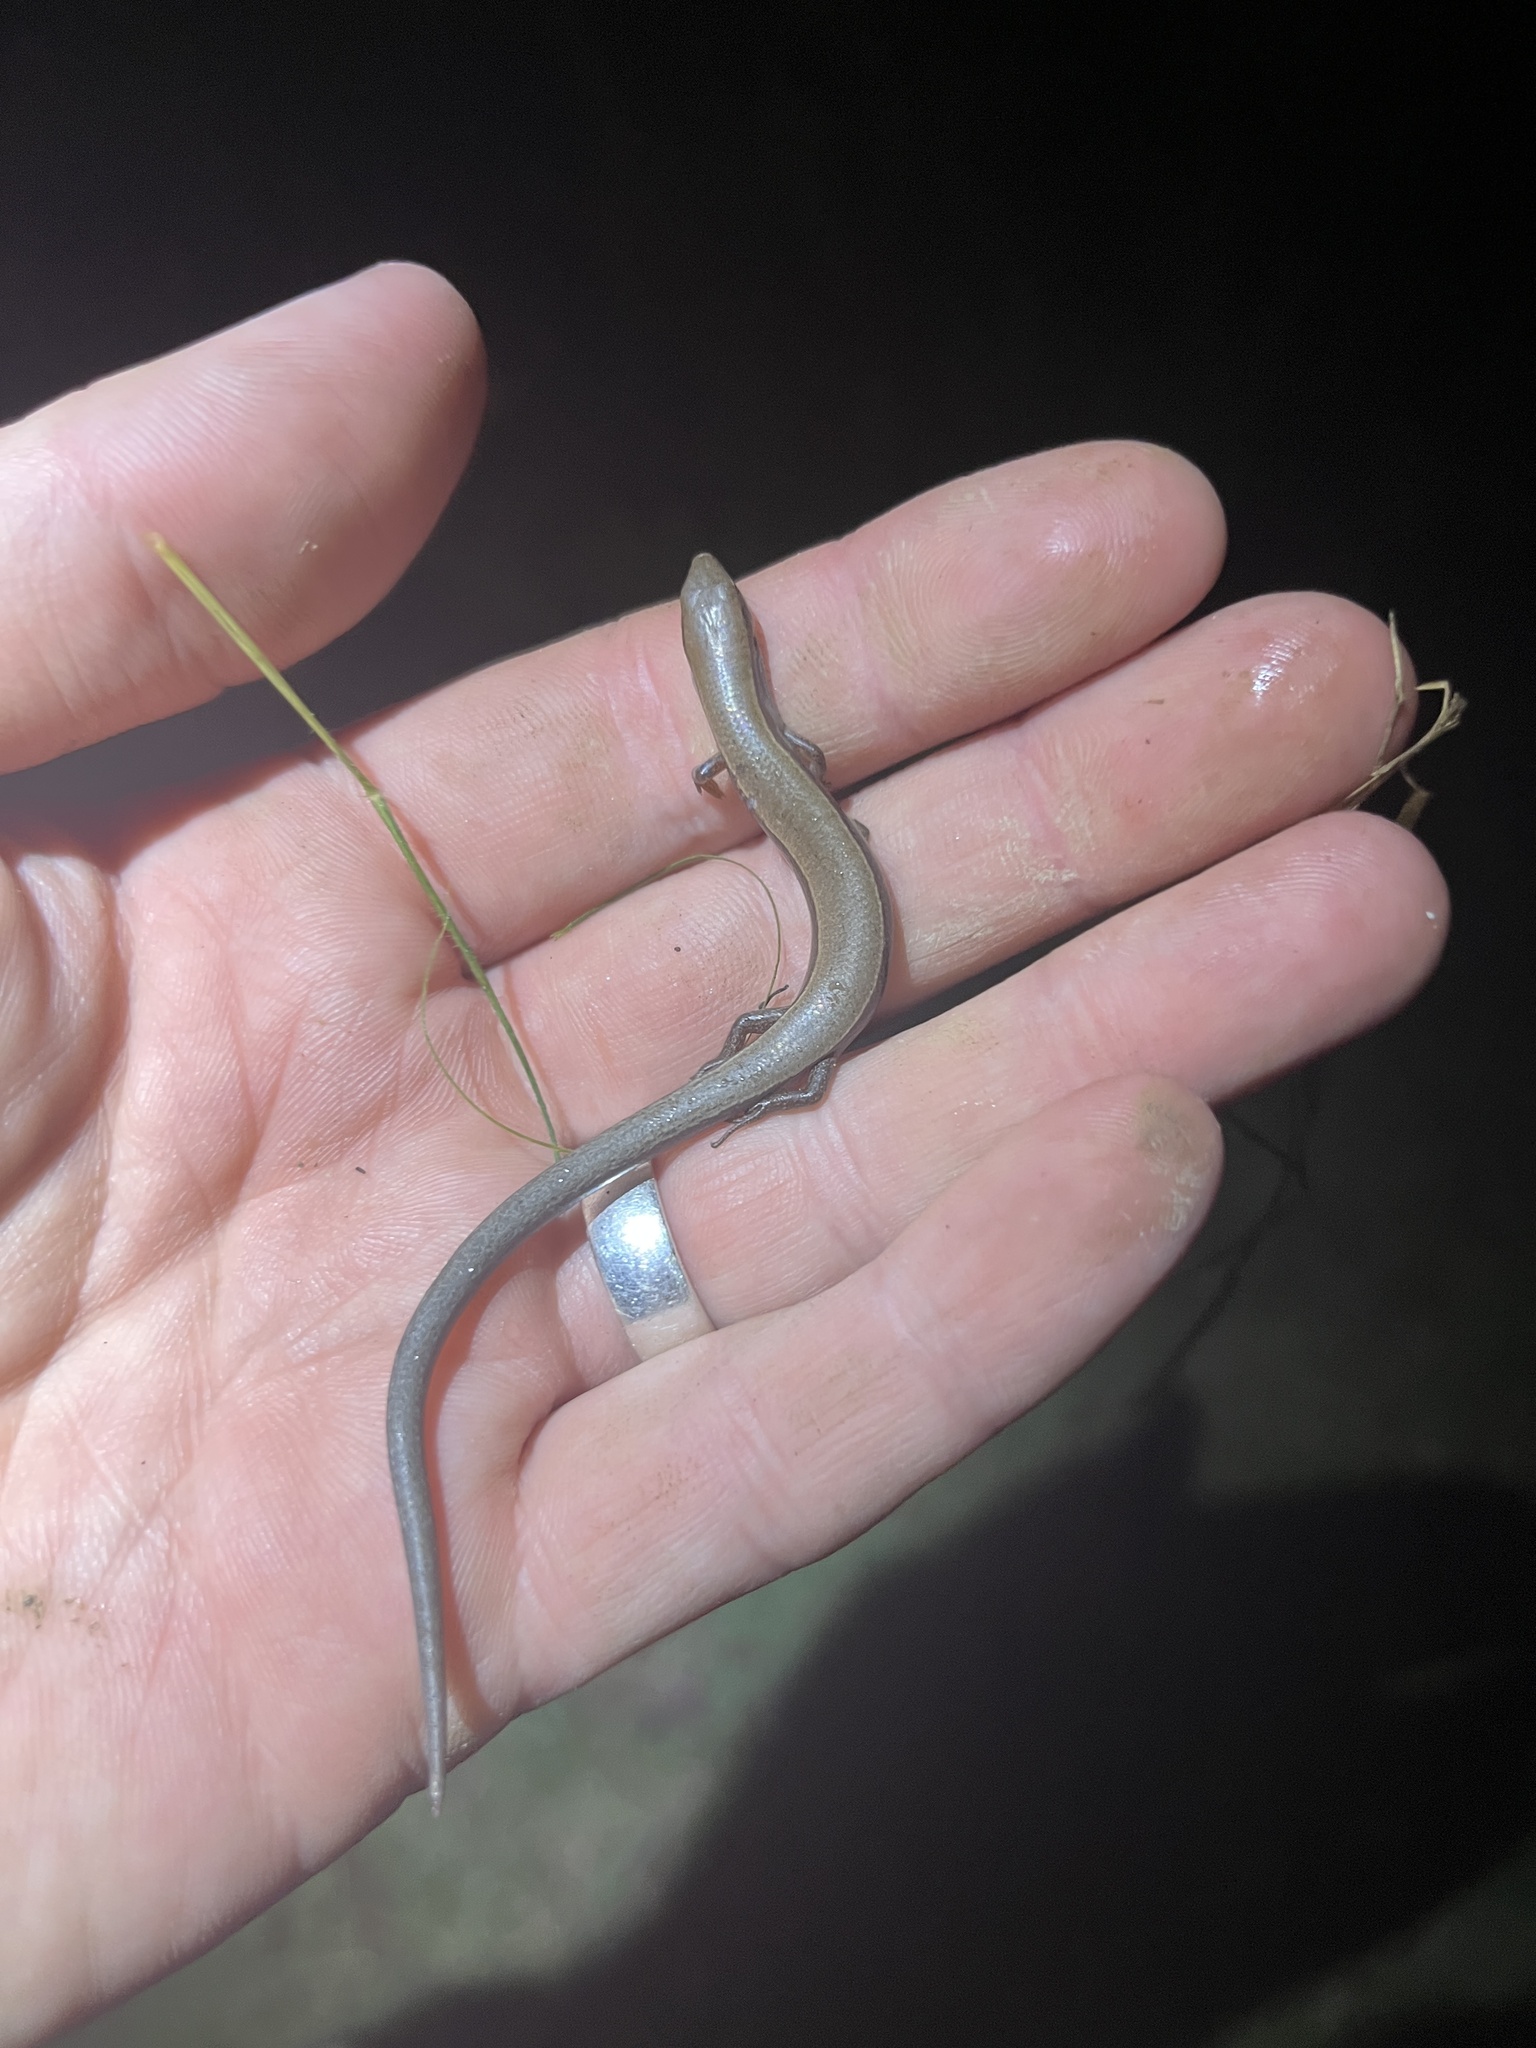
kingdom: Animalia
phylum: Chordata
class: Squamata
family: Scincidae
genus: Scincella
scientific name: Scincella lateralis
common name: Ground skink
